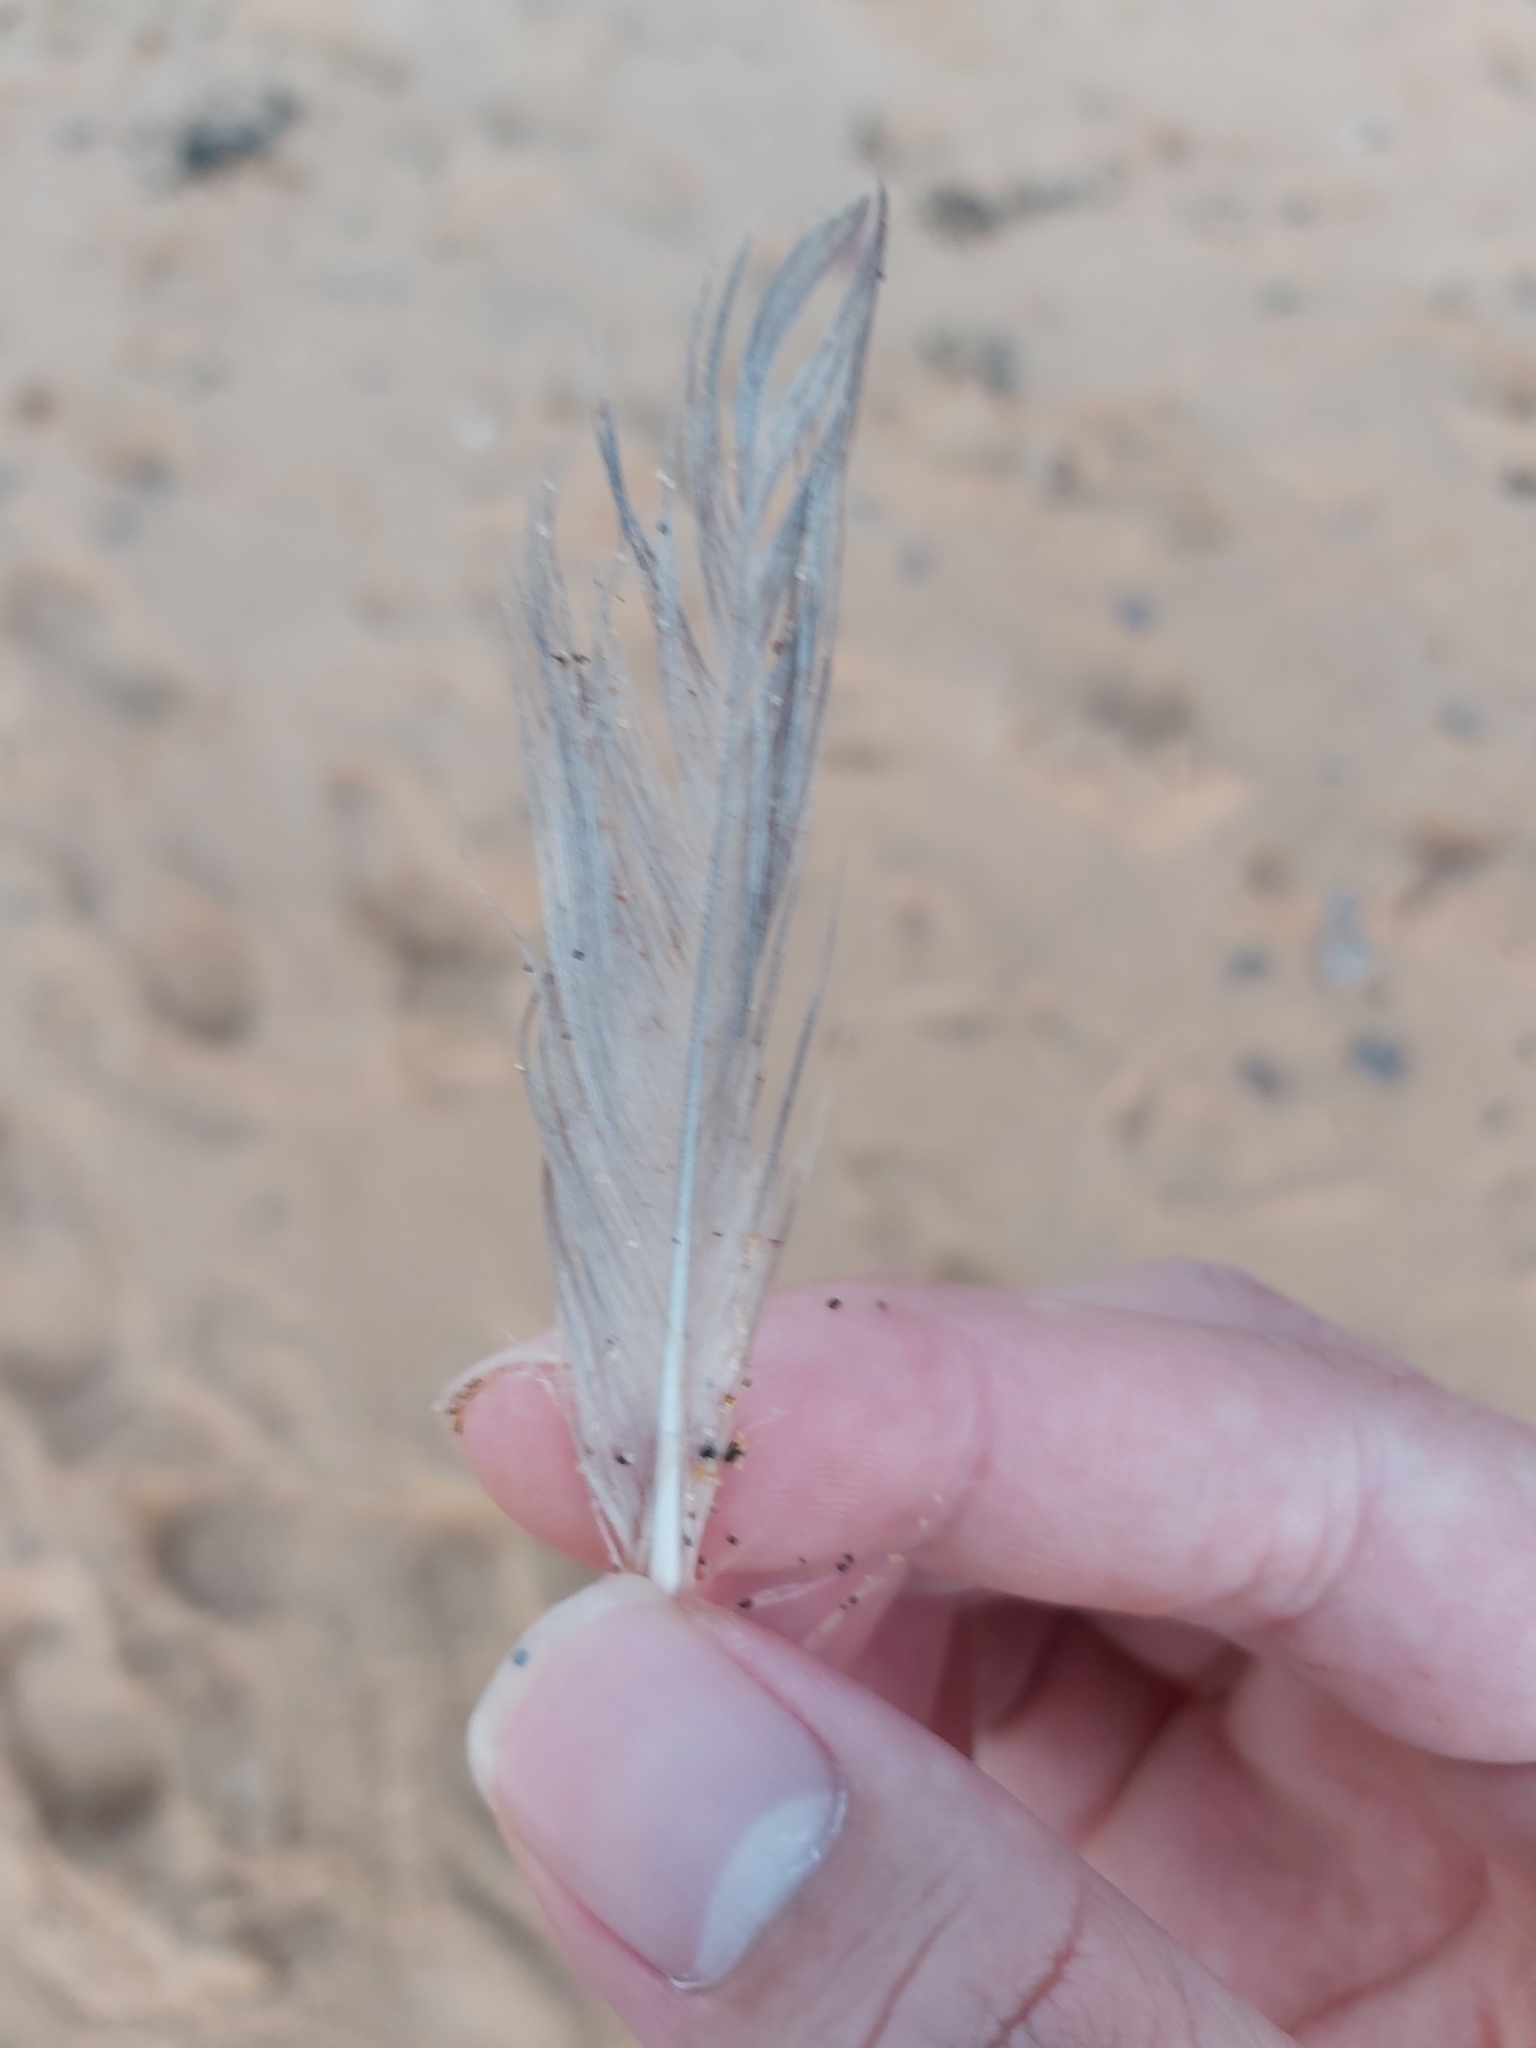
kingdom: Animalia
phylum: Chordata
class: Aves
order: Charadriiformes
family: Laridae
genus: Chroicocephalus
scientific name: Chroicocephalus novaehollandiae
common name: Silver gull
